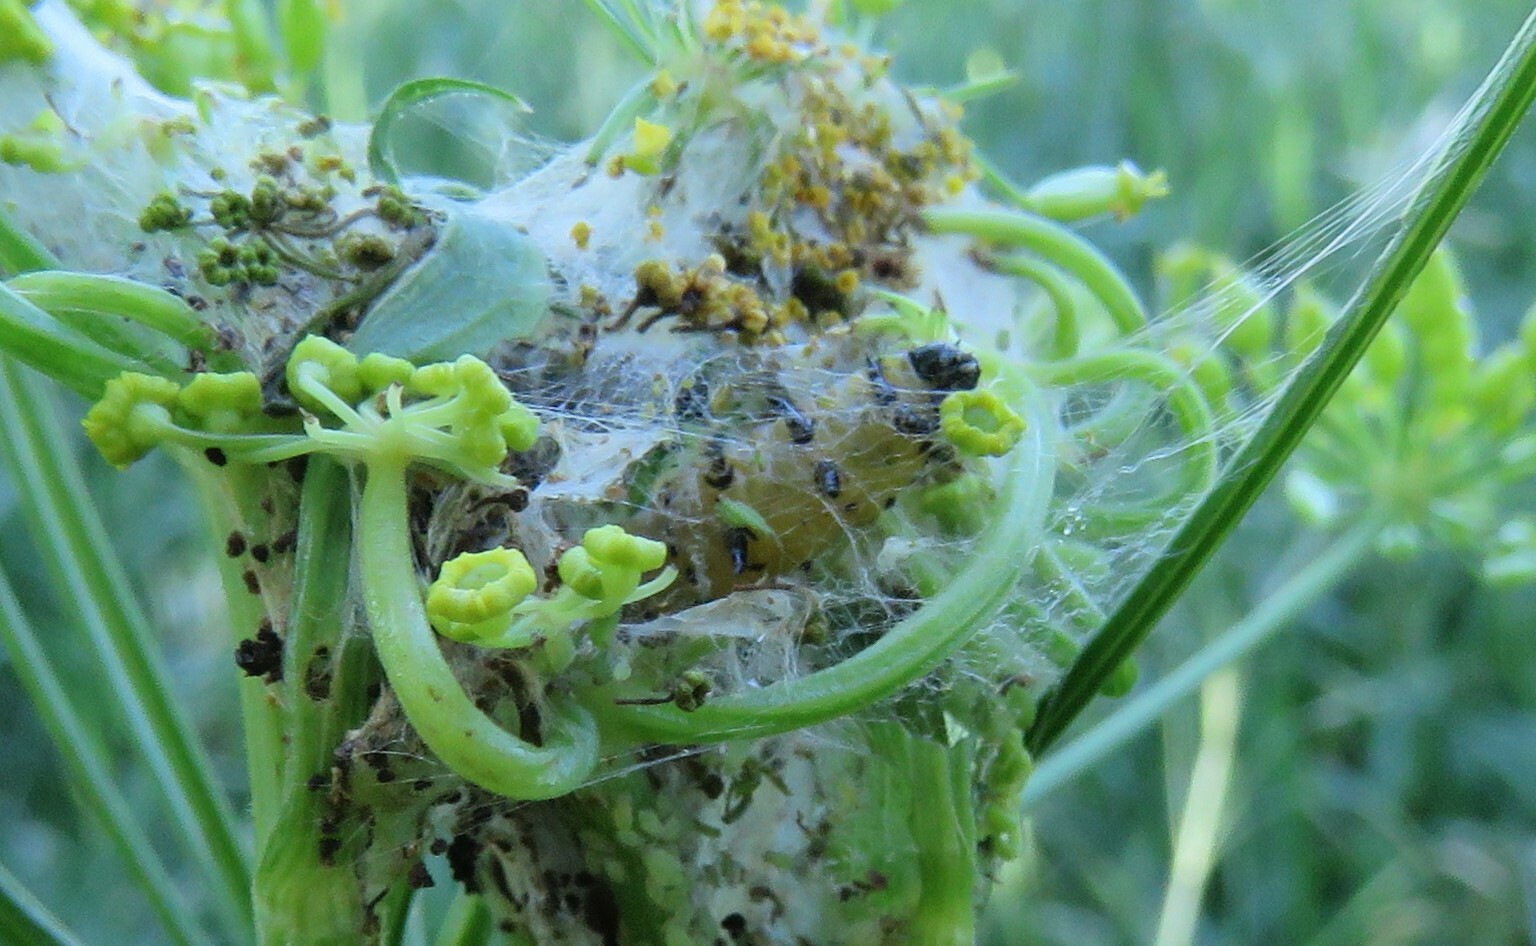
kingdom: Animalia
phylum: Arthropoda
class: Insecta
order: Lepidoptera
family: Depressariidae
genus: Depressaria
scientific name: Depressaria radiella
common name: Parsnip moth
